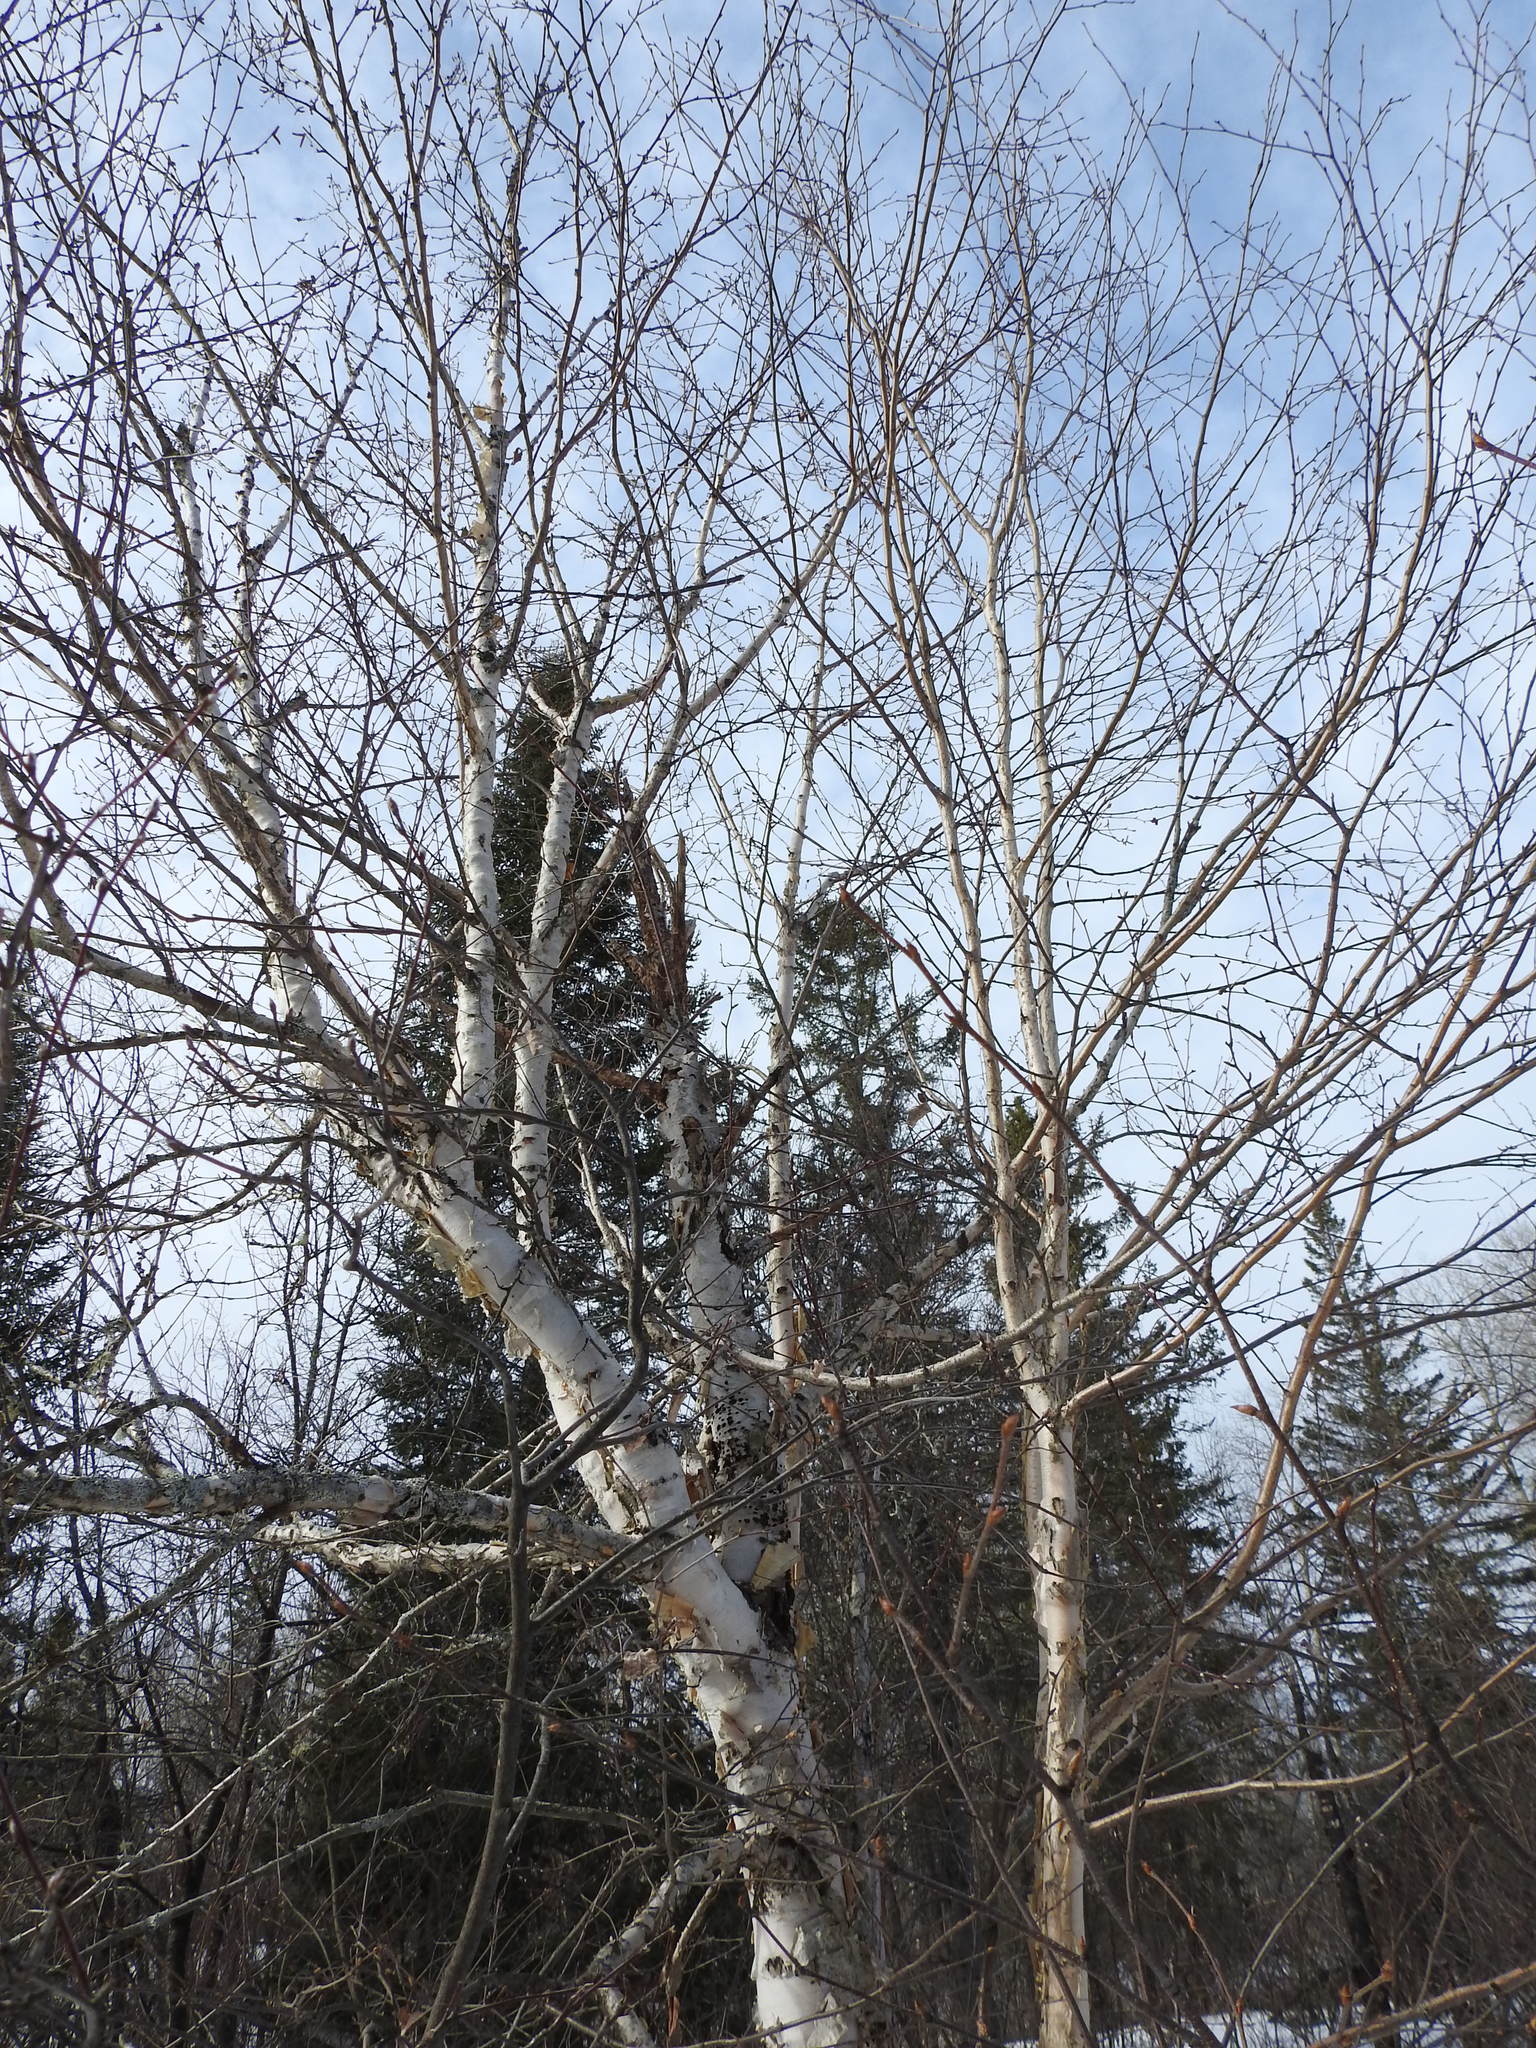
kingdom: Plantae
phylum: Tracheophyta
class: Magnoliopsida
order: Fagales
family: Betulaceae
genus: Betula
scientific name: Betula papyrifera
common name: Paper birch
